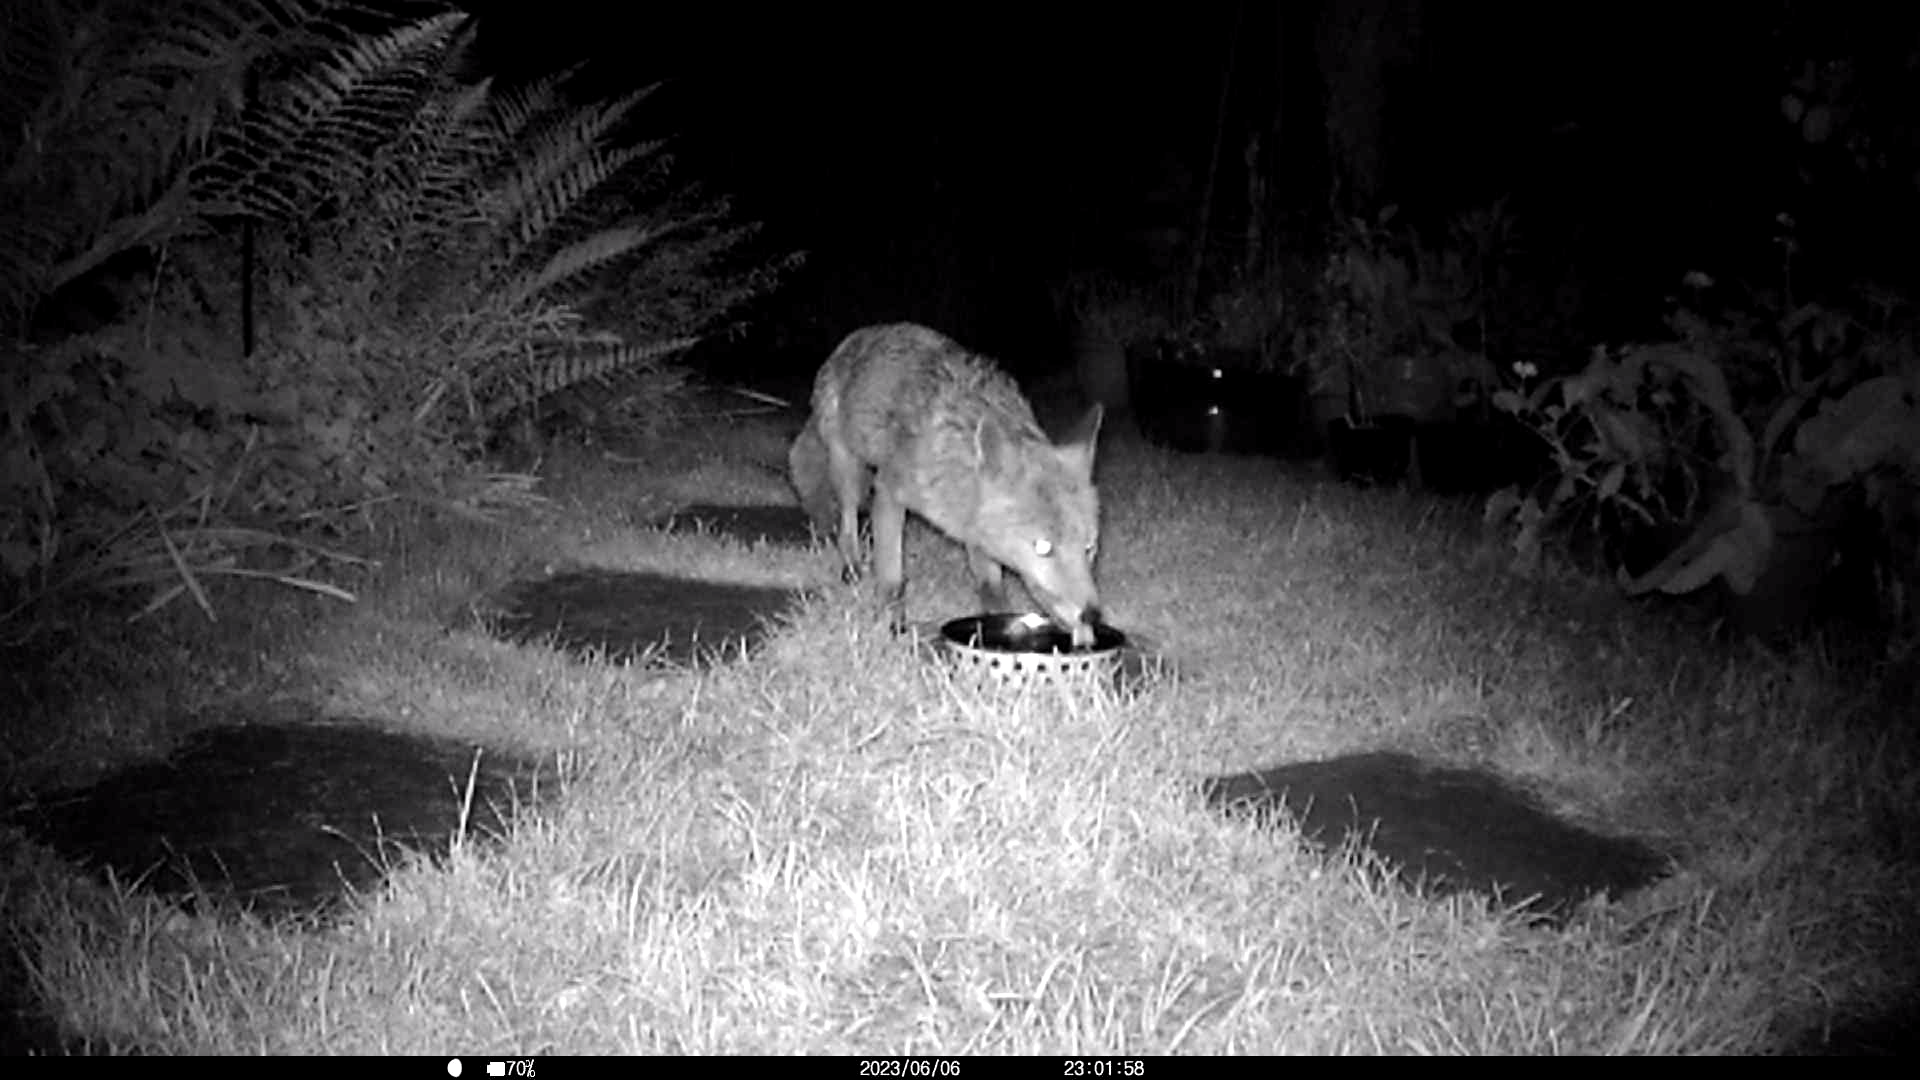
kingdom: Animalia
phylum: Chordata
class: Mammalia
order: Carnivora
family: Canidae
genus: Vulpes
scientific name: Vulpes vulpes
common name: Red fox
